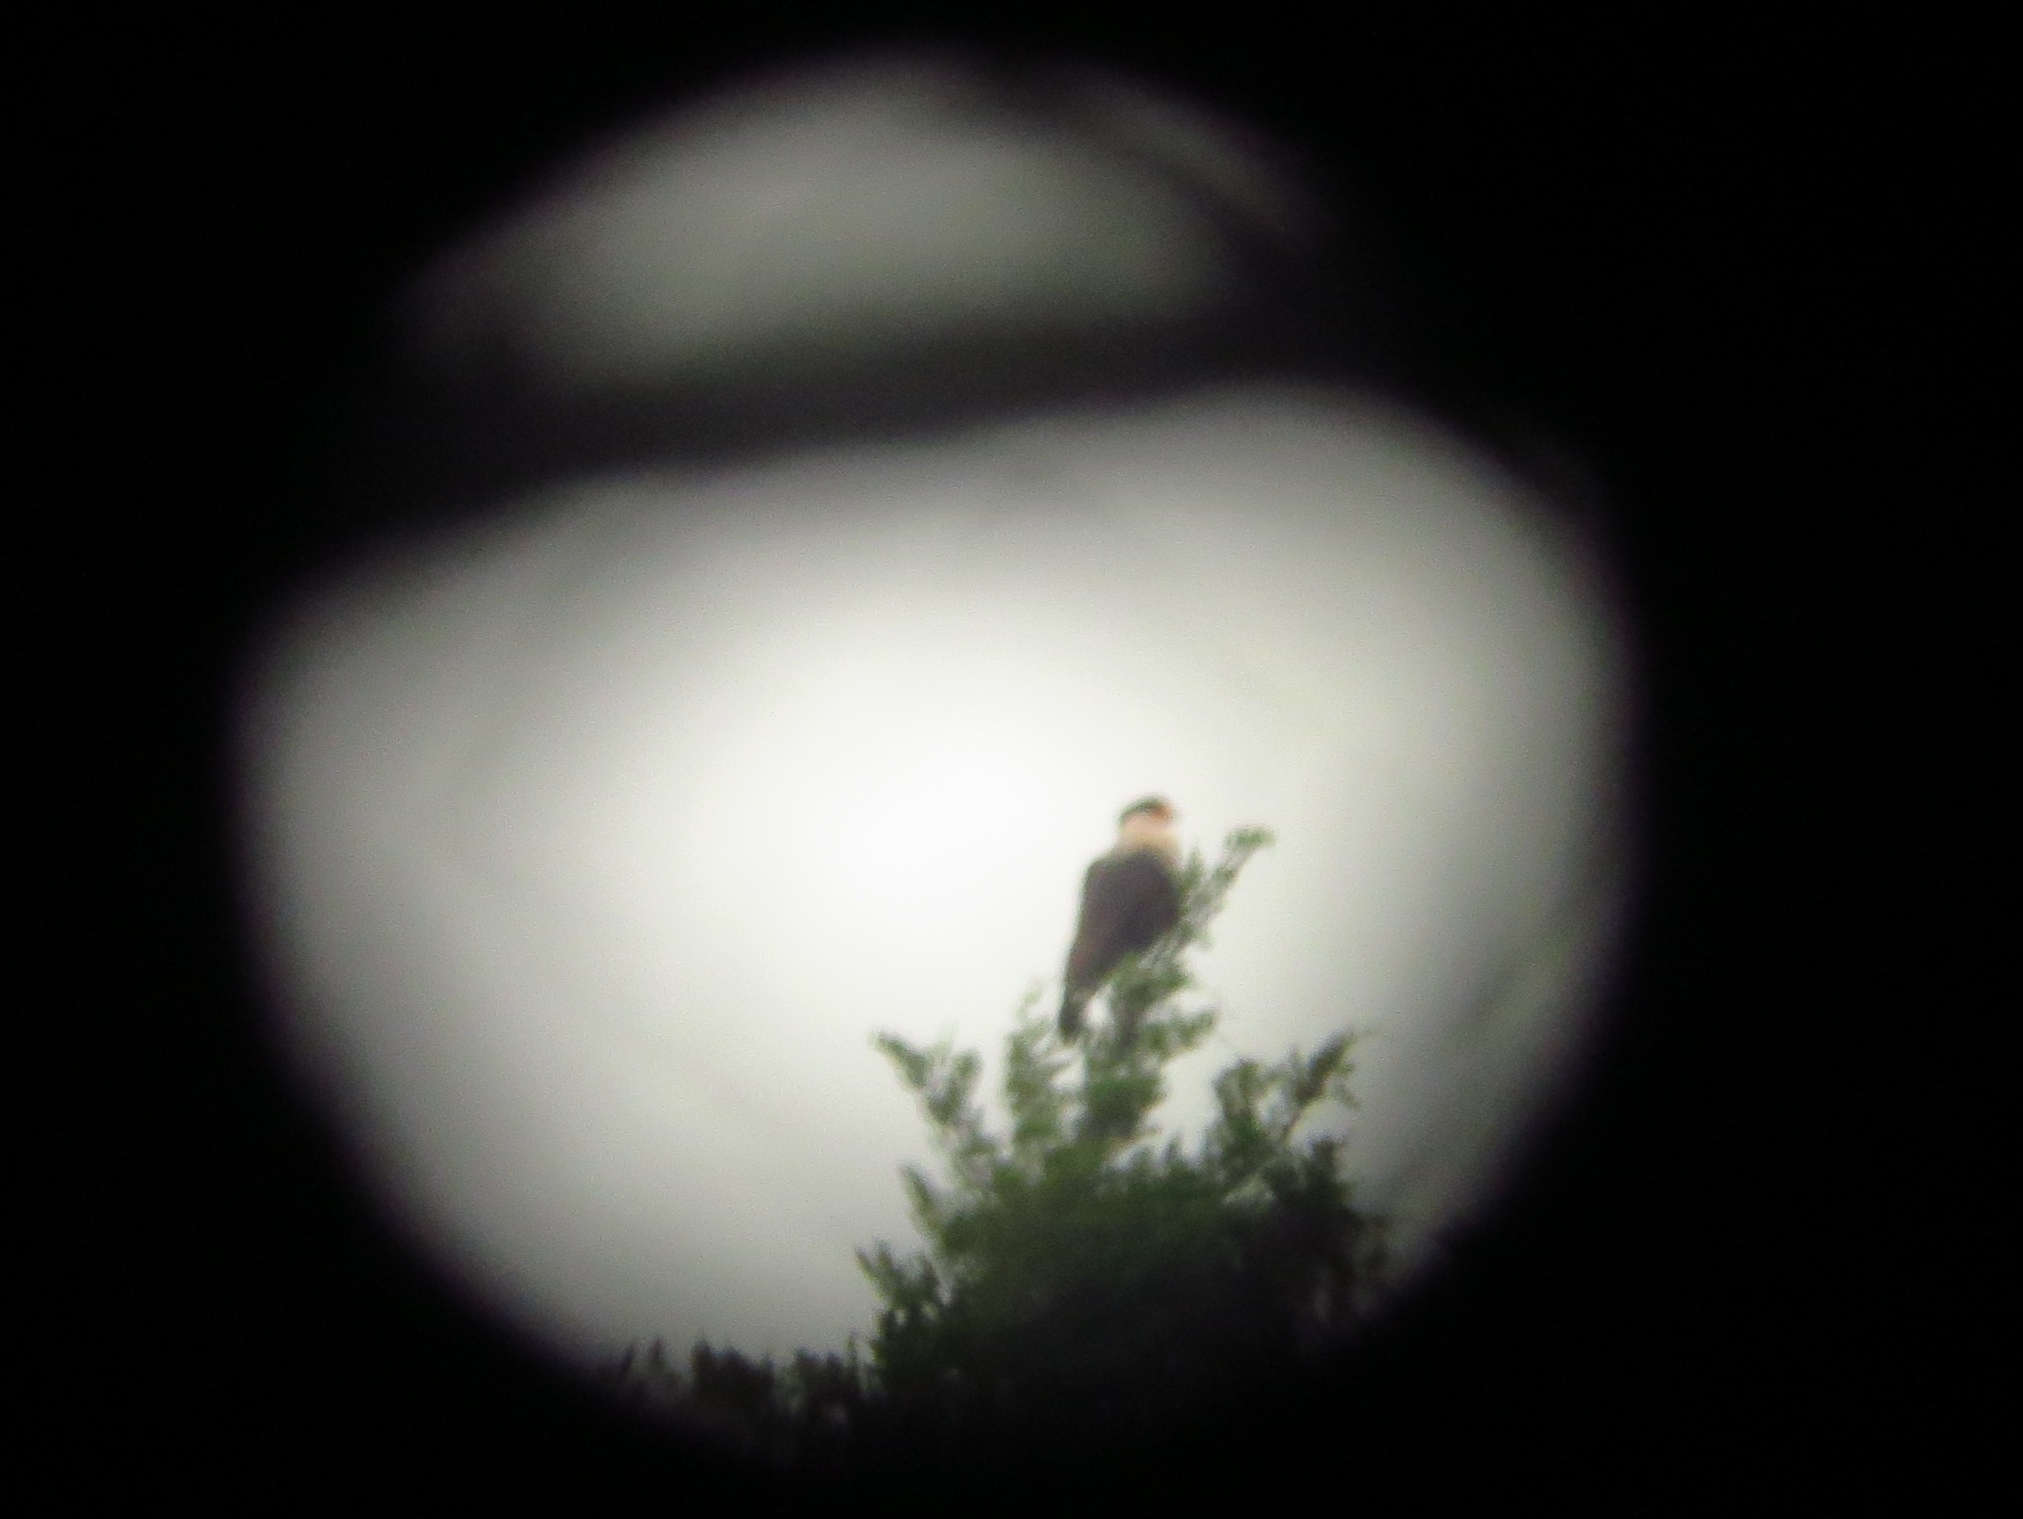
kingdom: Animalia
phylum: Chordata
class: Aves
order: Falconiformes
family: Falconidae
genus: Caracara
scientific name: Caracara plancus
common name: Southern caracara
